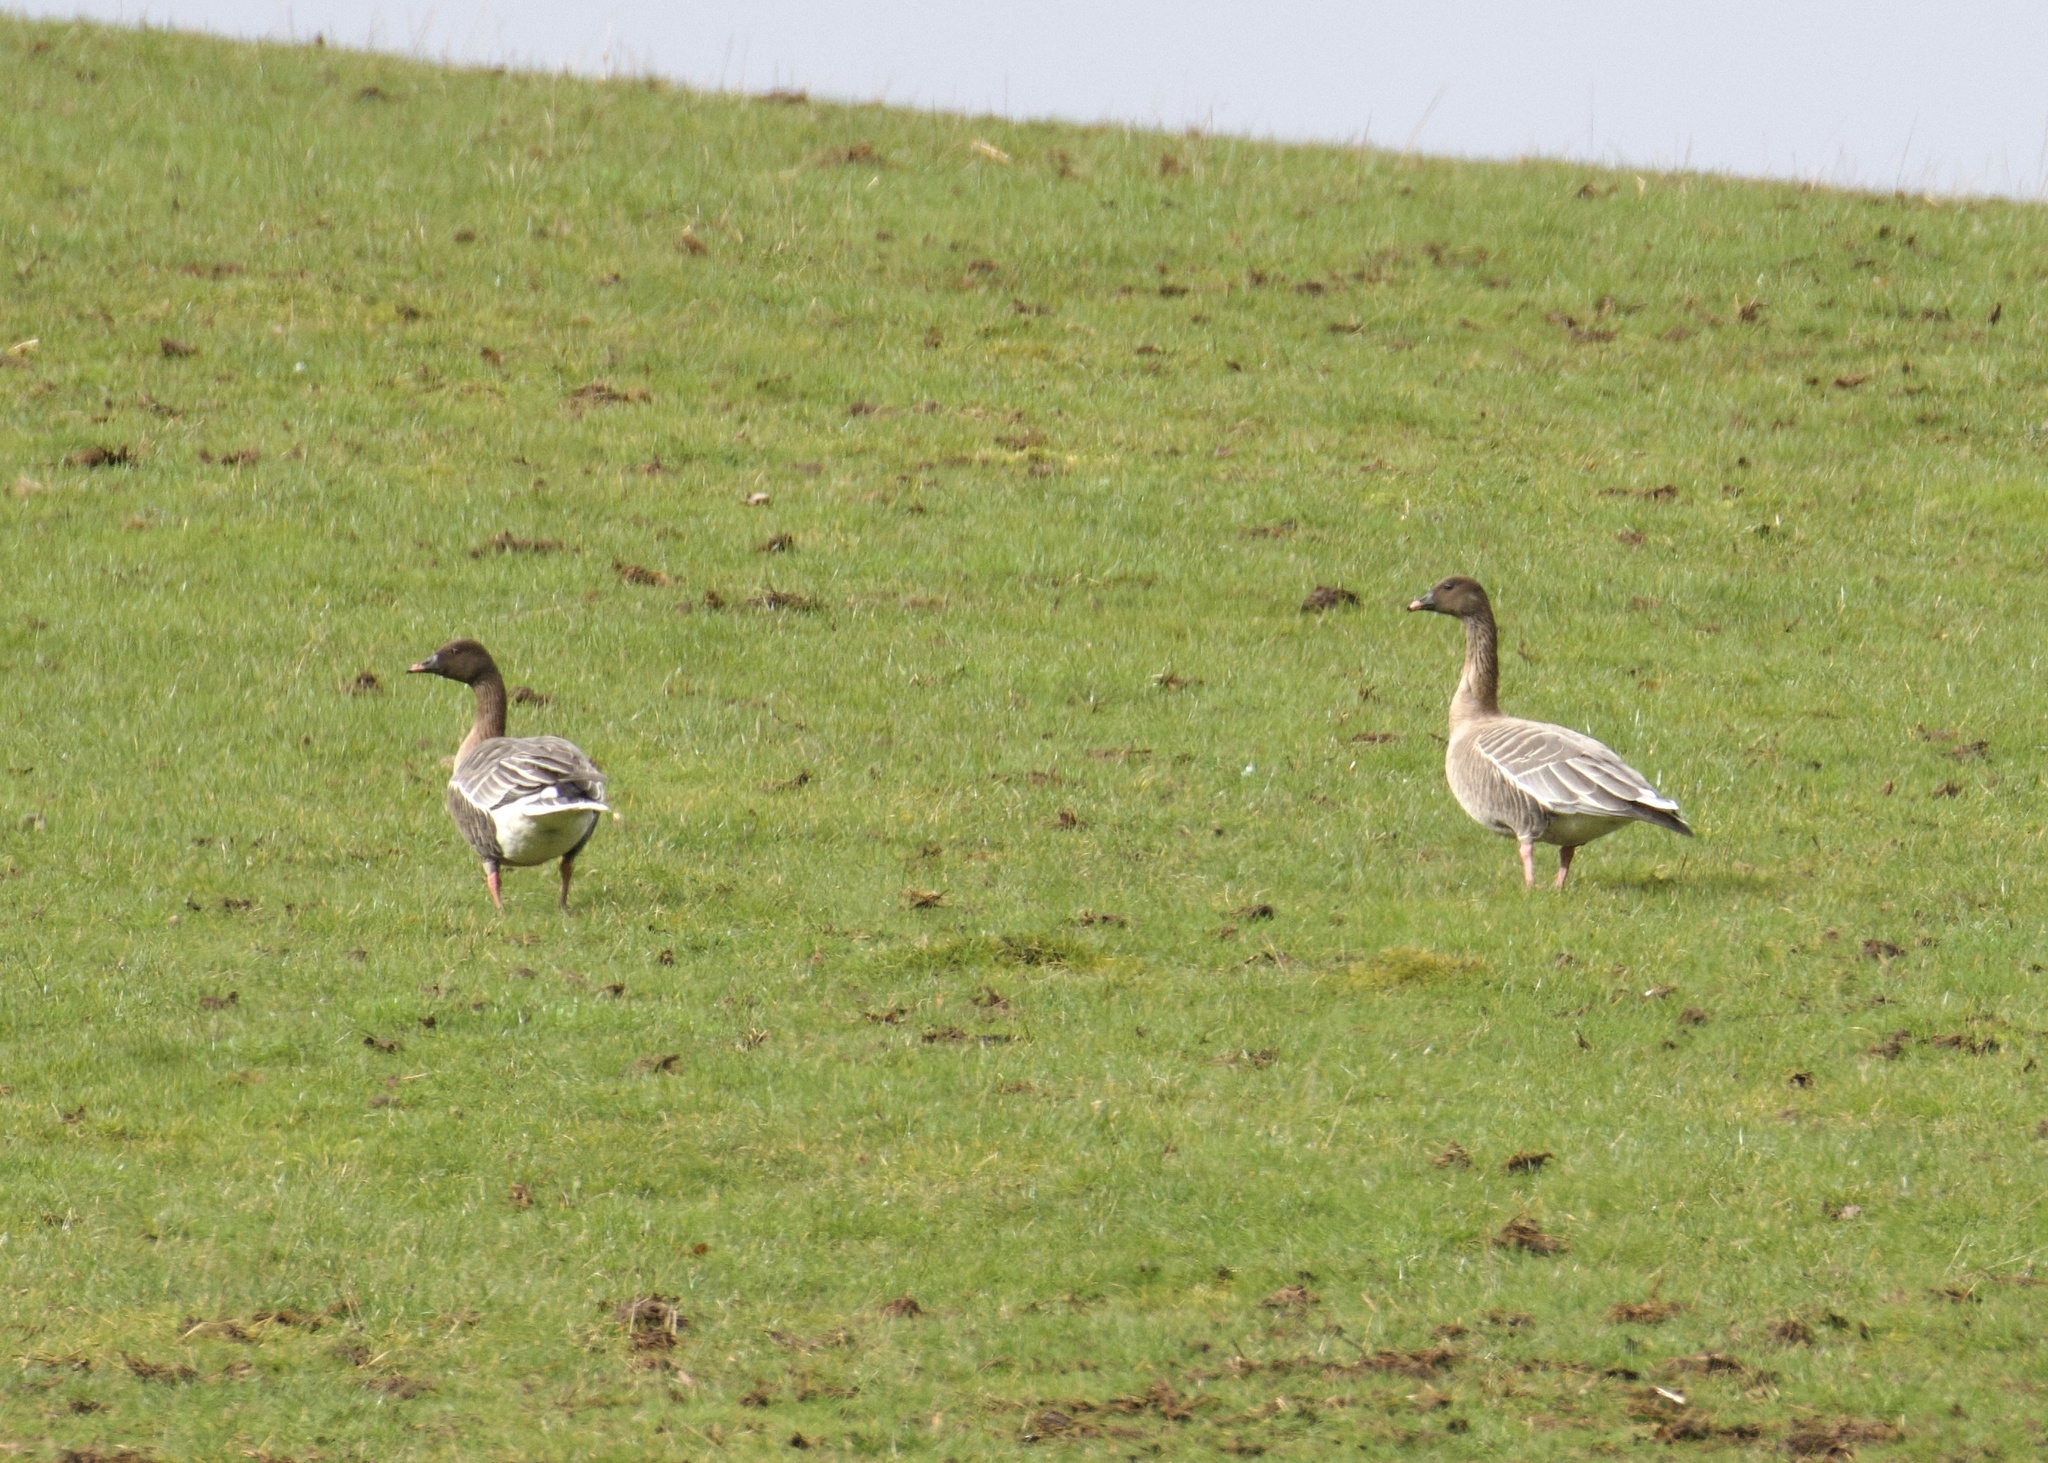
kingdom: Animalia
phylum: Chordata
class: Aves
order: Anseriformes
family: Anatidae
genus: Anser
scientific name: Anser brachyrhynchus
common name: Pink-footed goose
